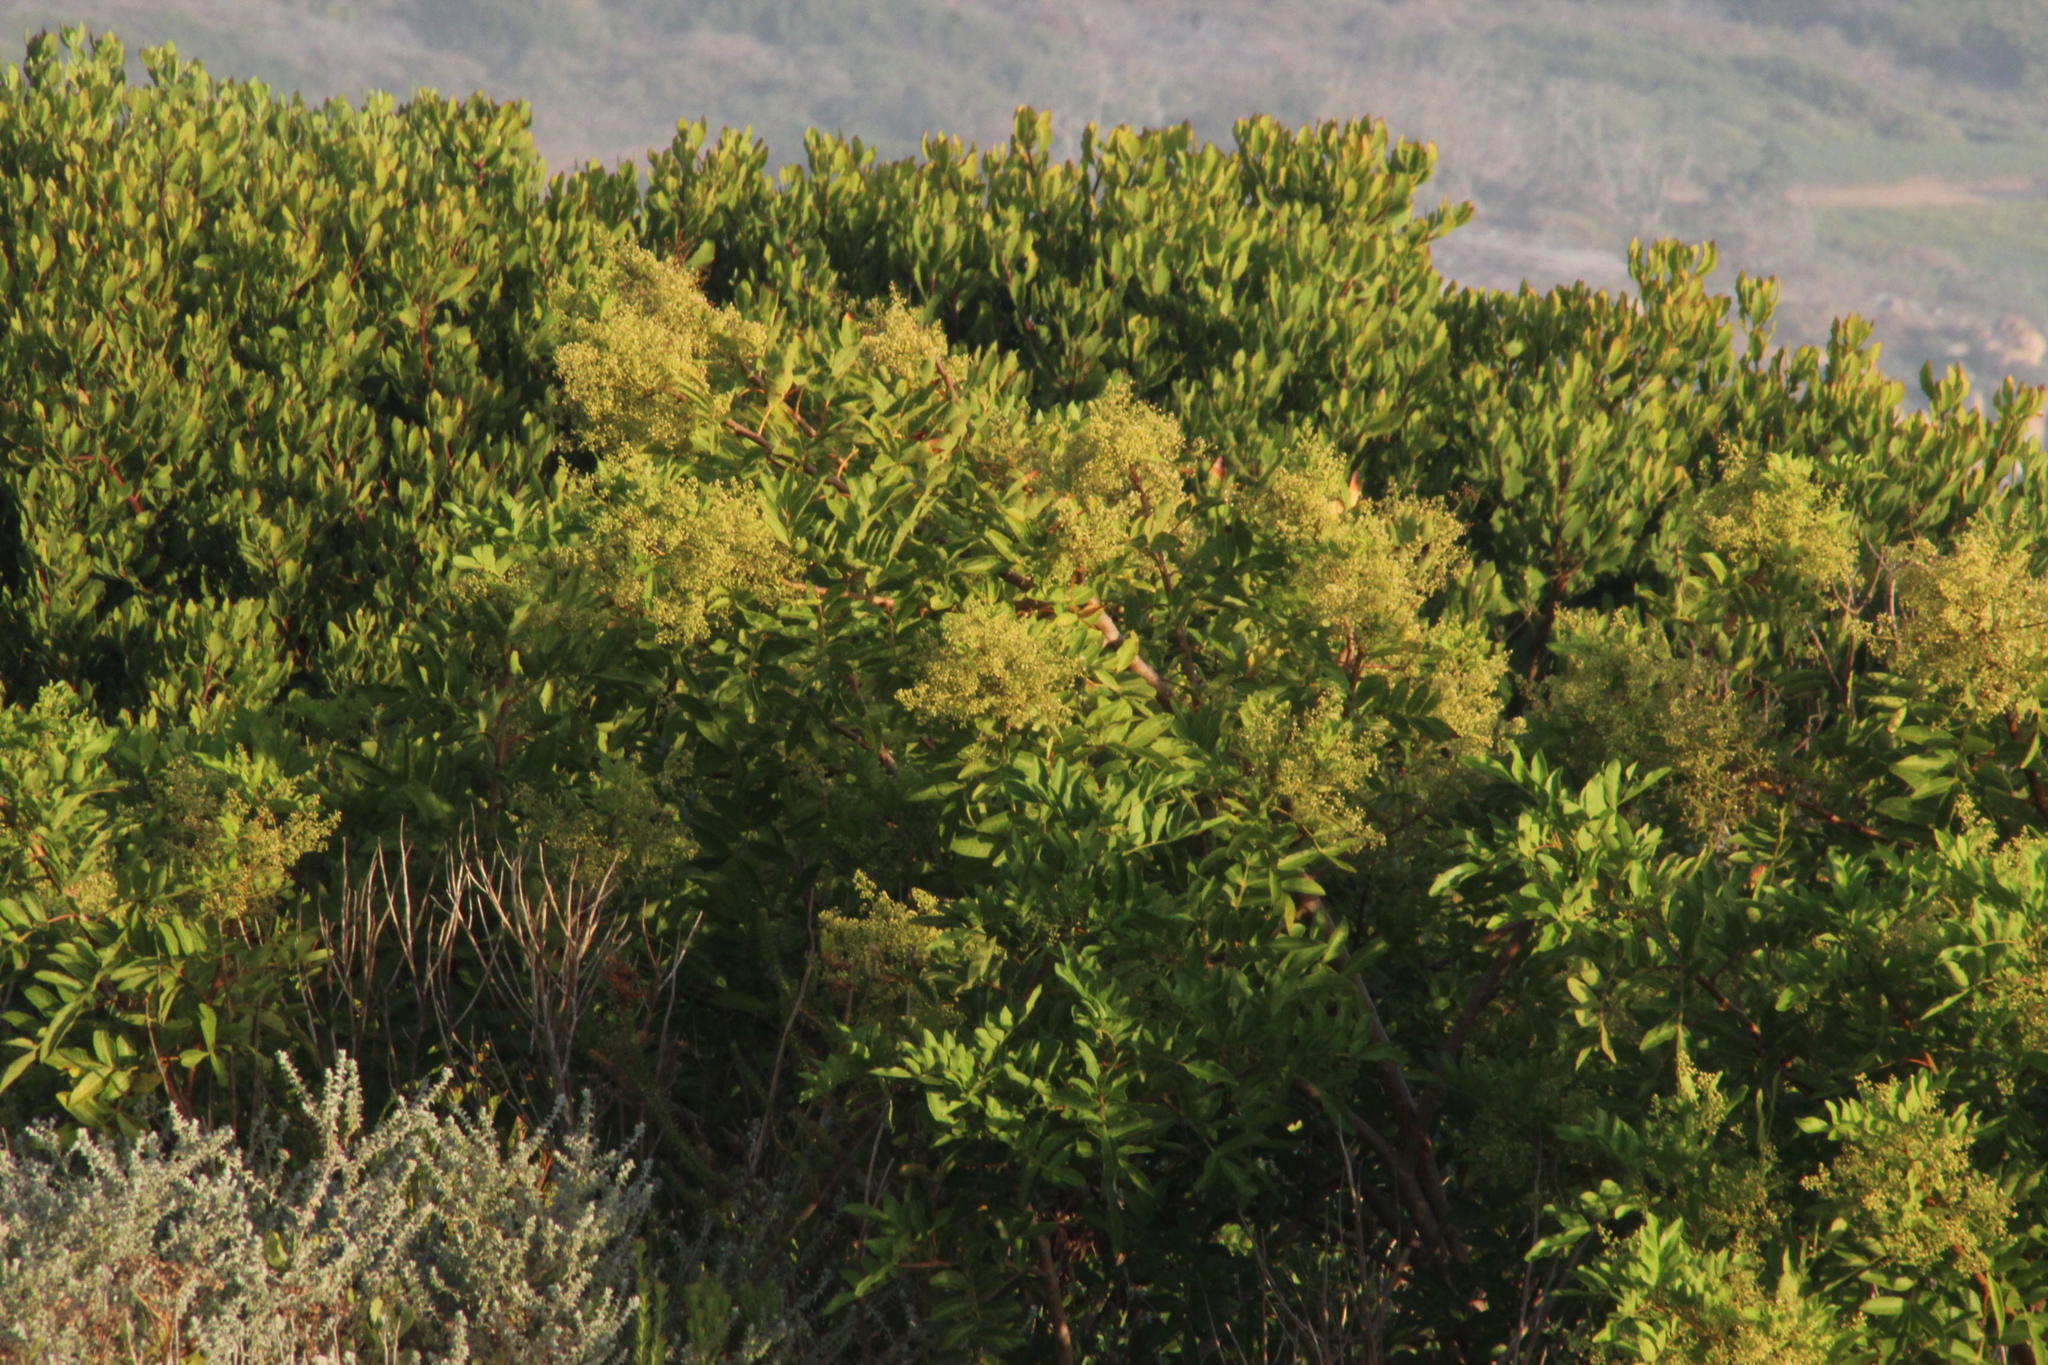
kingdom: Plantae
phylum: Tracheophyta
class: Magnoliopsida
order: Sapindales
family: Anacardiaceae
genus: Schinus
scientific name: Schinus terebinthifolia
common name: Brazilian peppertree
